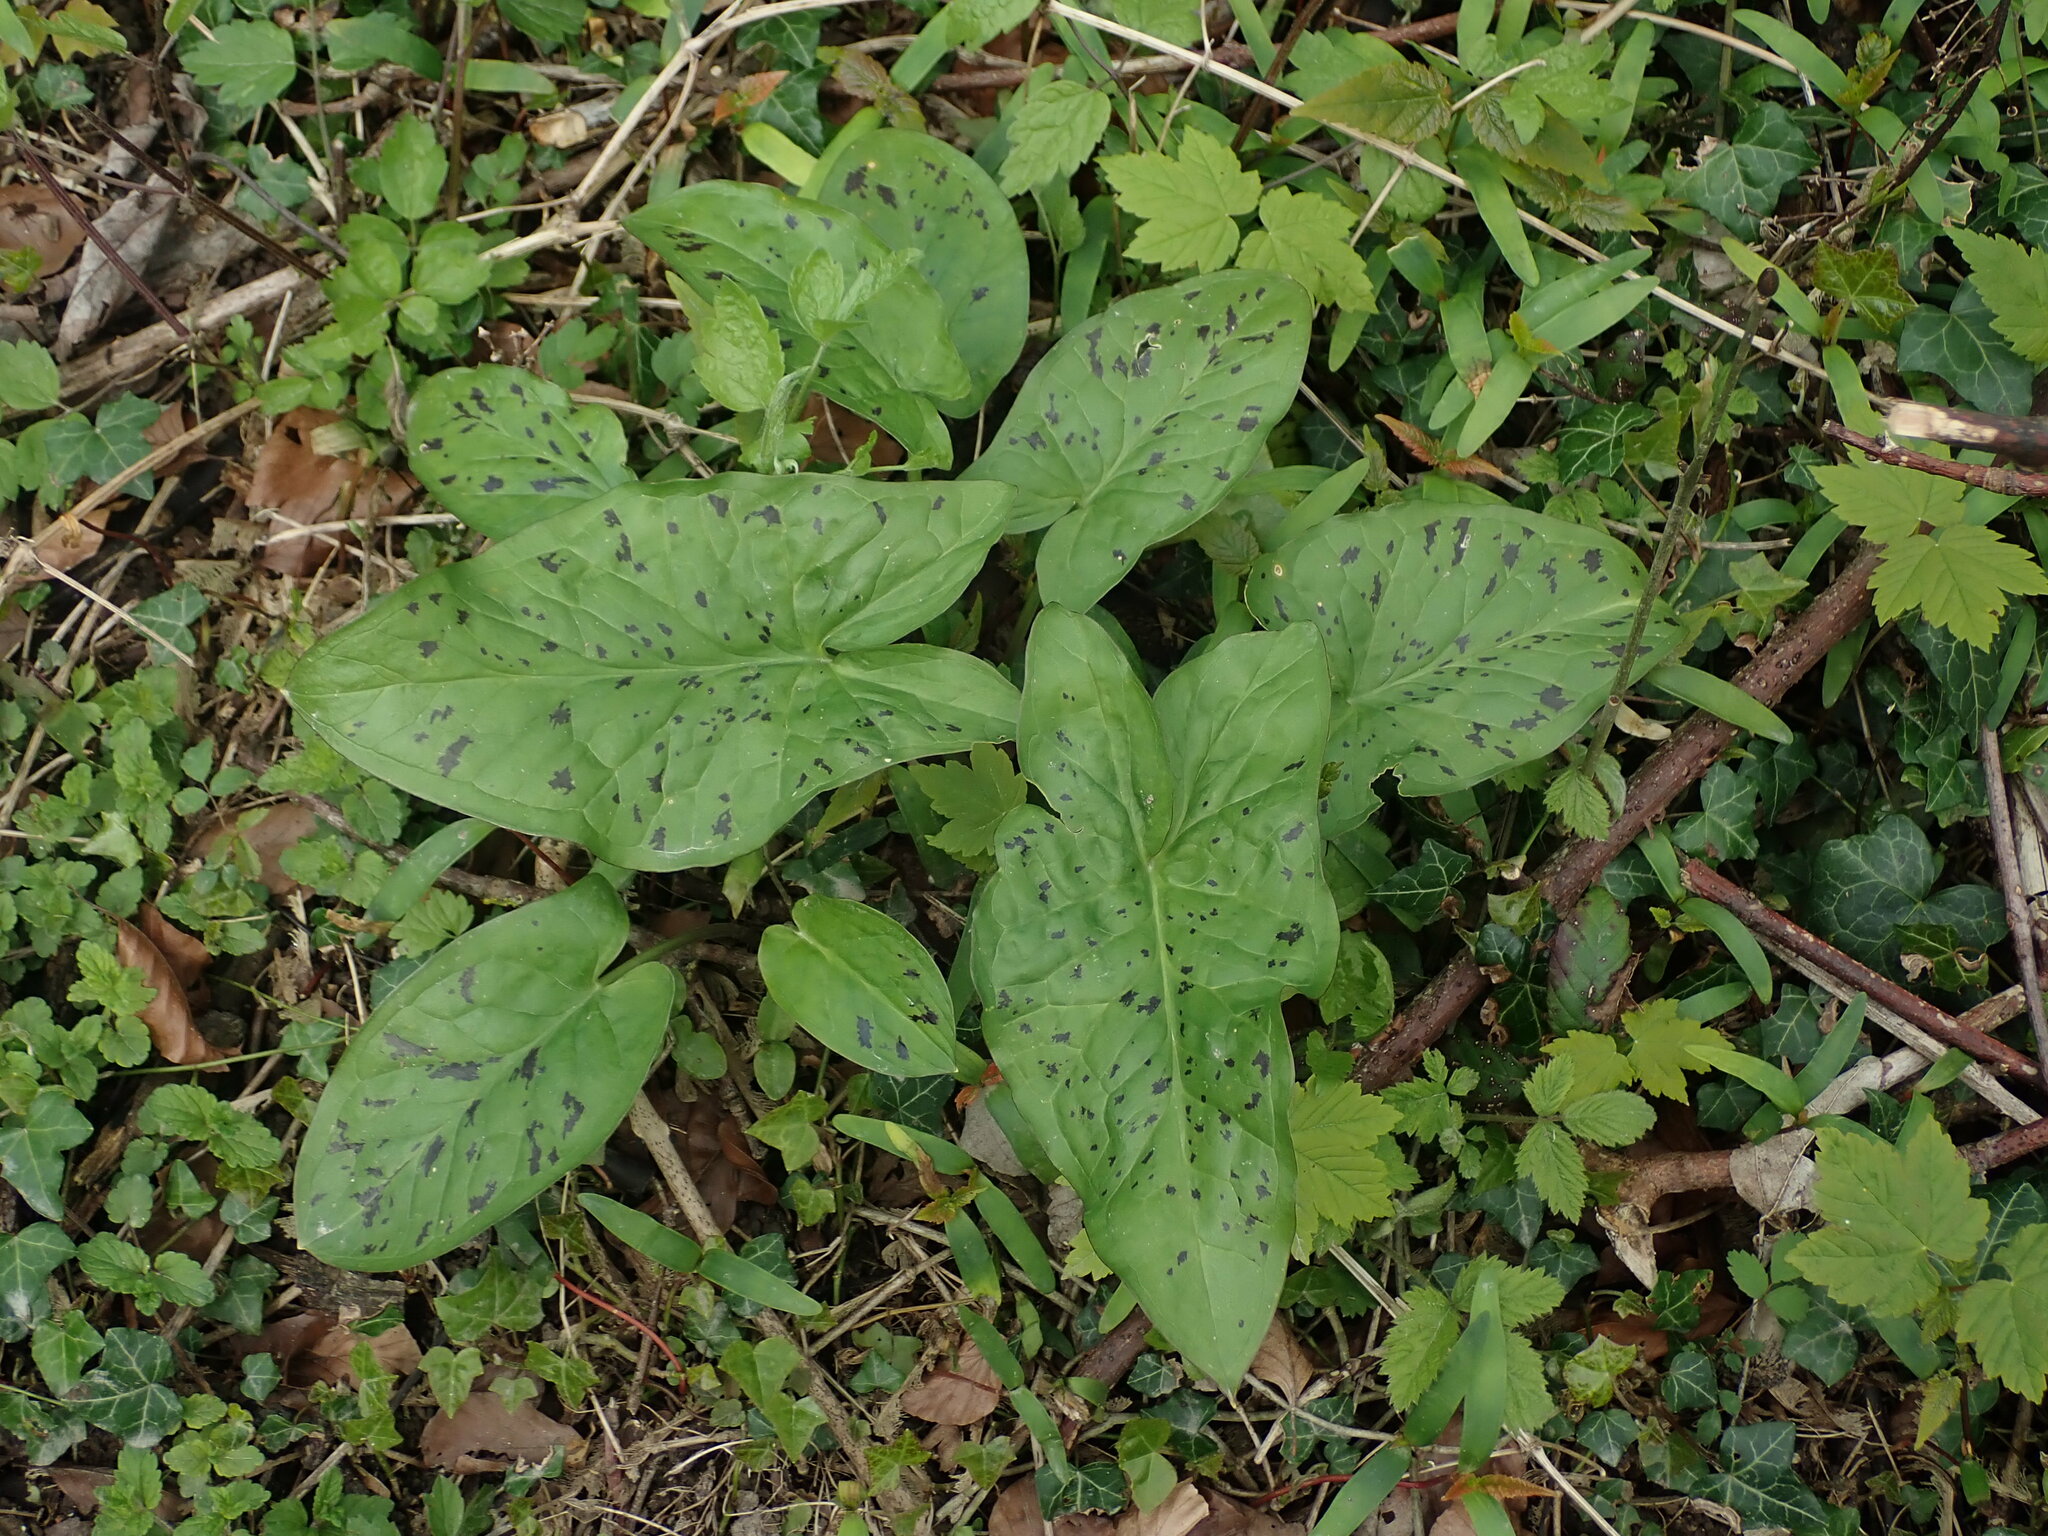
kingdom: Plantae
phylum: Tracheophyta
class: Liliopsida
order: Alismatales
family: Araceae
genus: Arum
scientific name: Arum maculatum
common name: Lords-and-ladies
